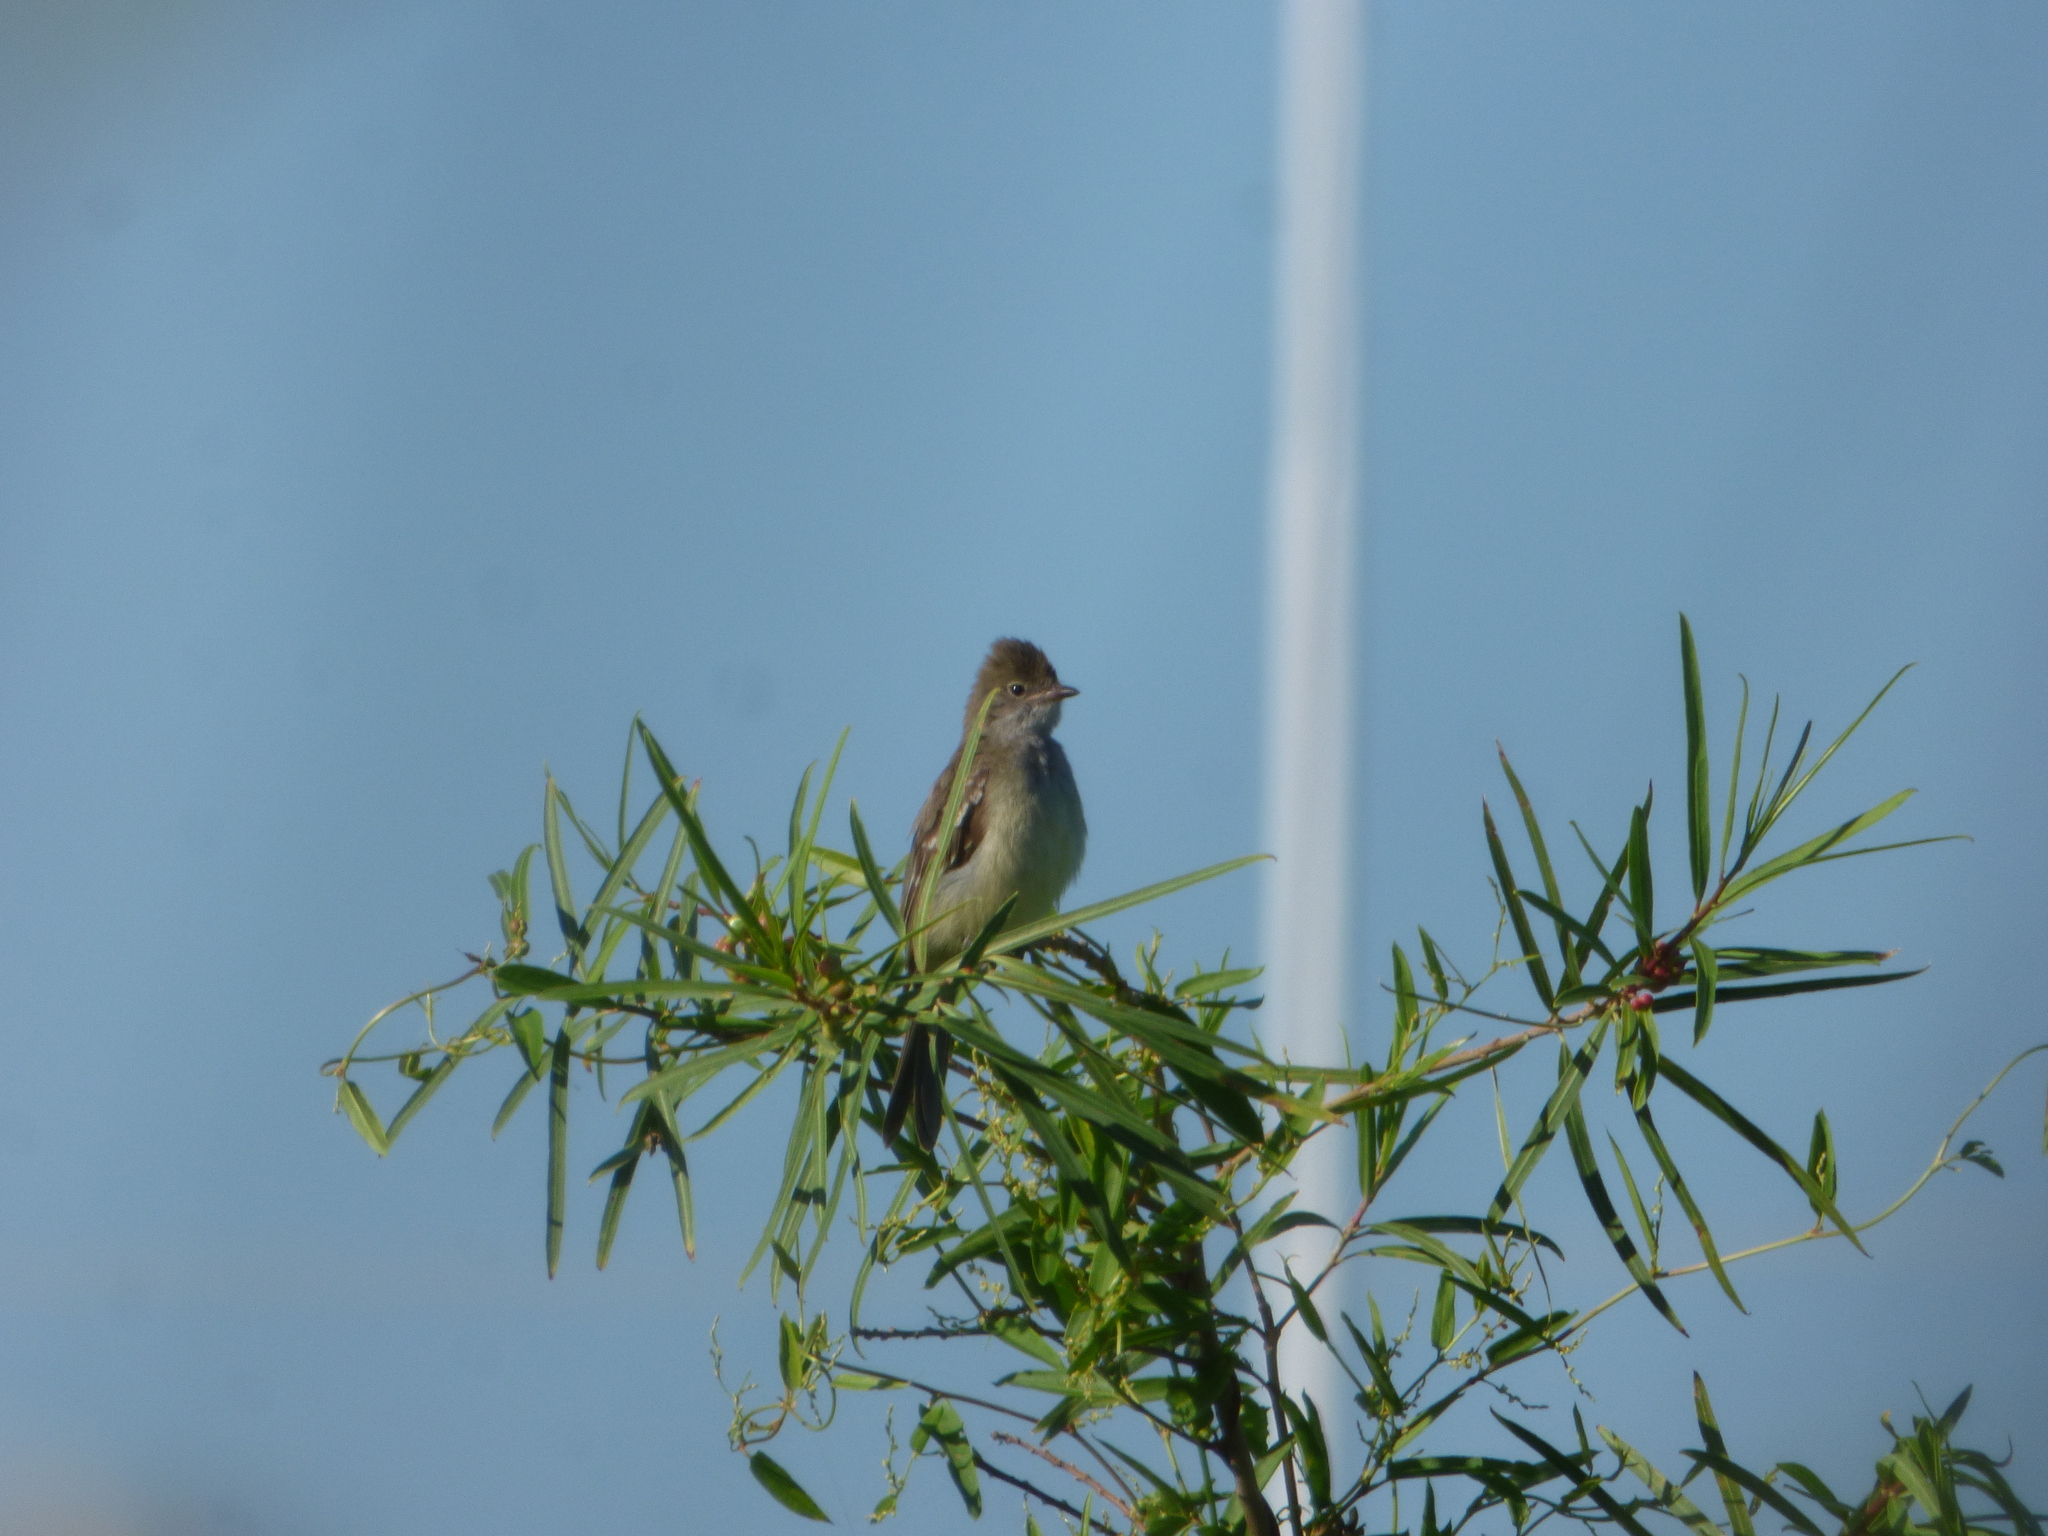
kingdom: Animalia
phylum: Chordata
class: Aves
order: Passeriformes
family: Tyrannidae
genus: Elaenia
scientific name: Elaenia spectabilis
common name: Large elaenia
